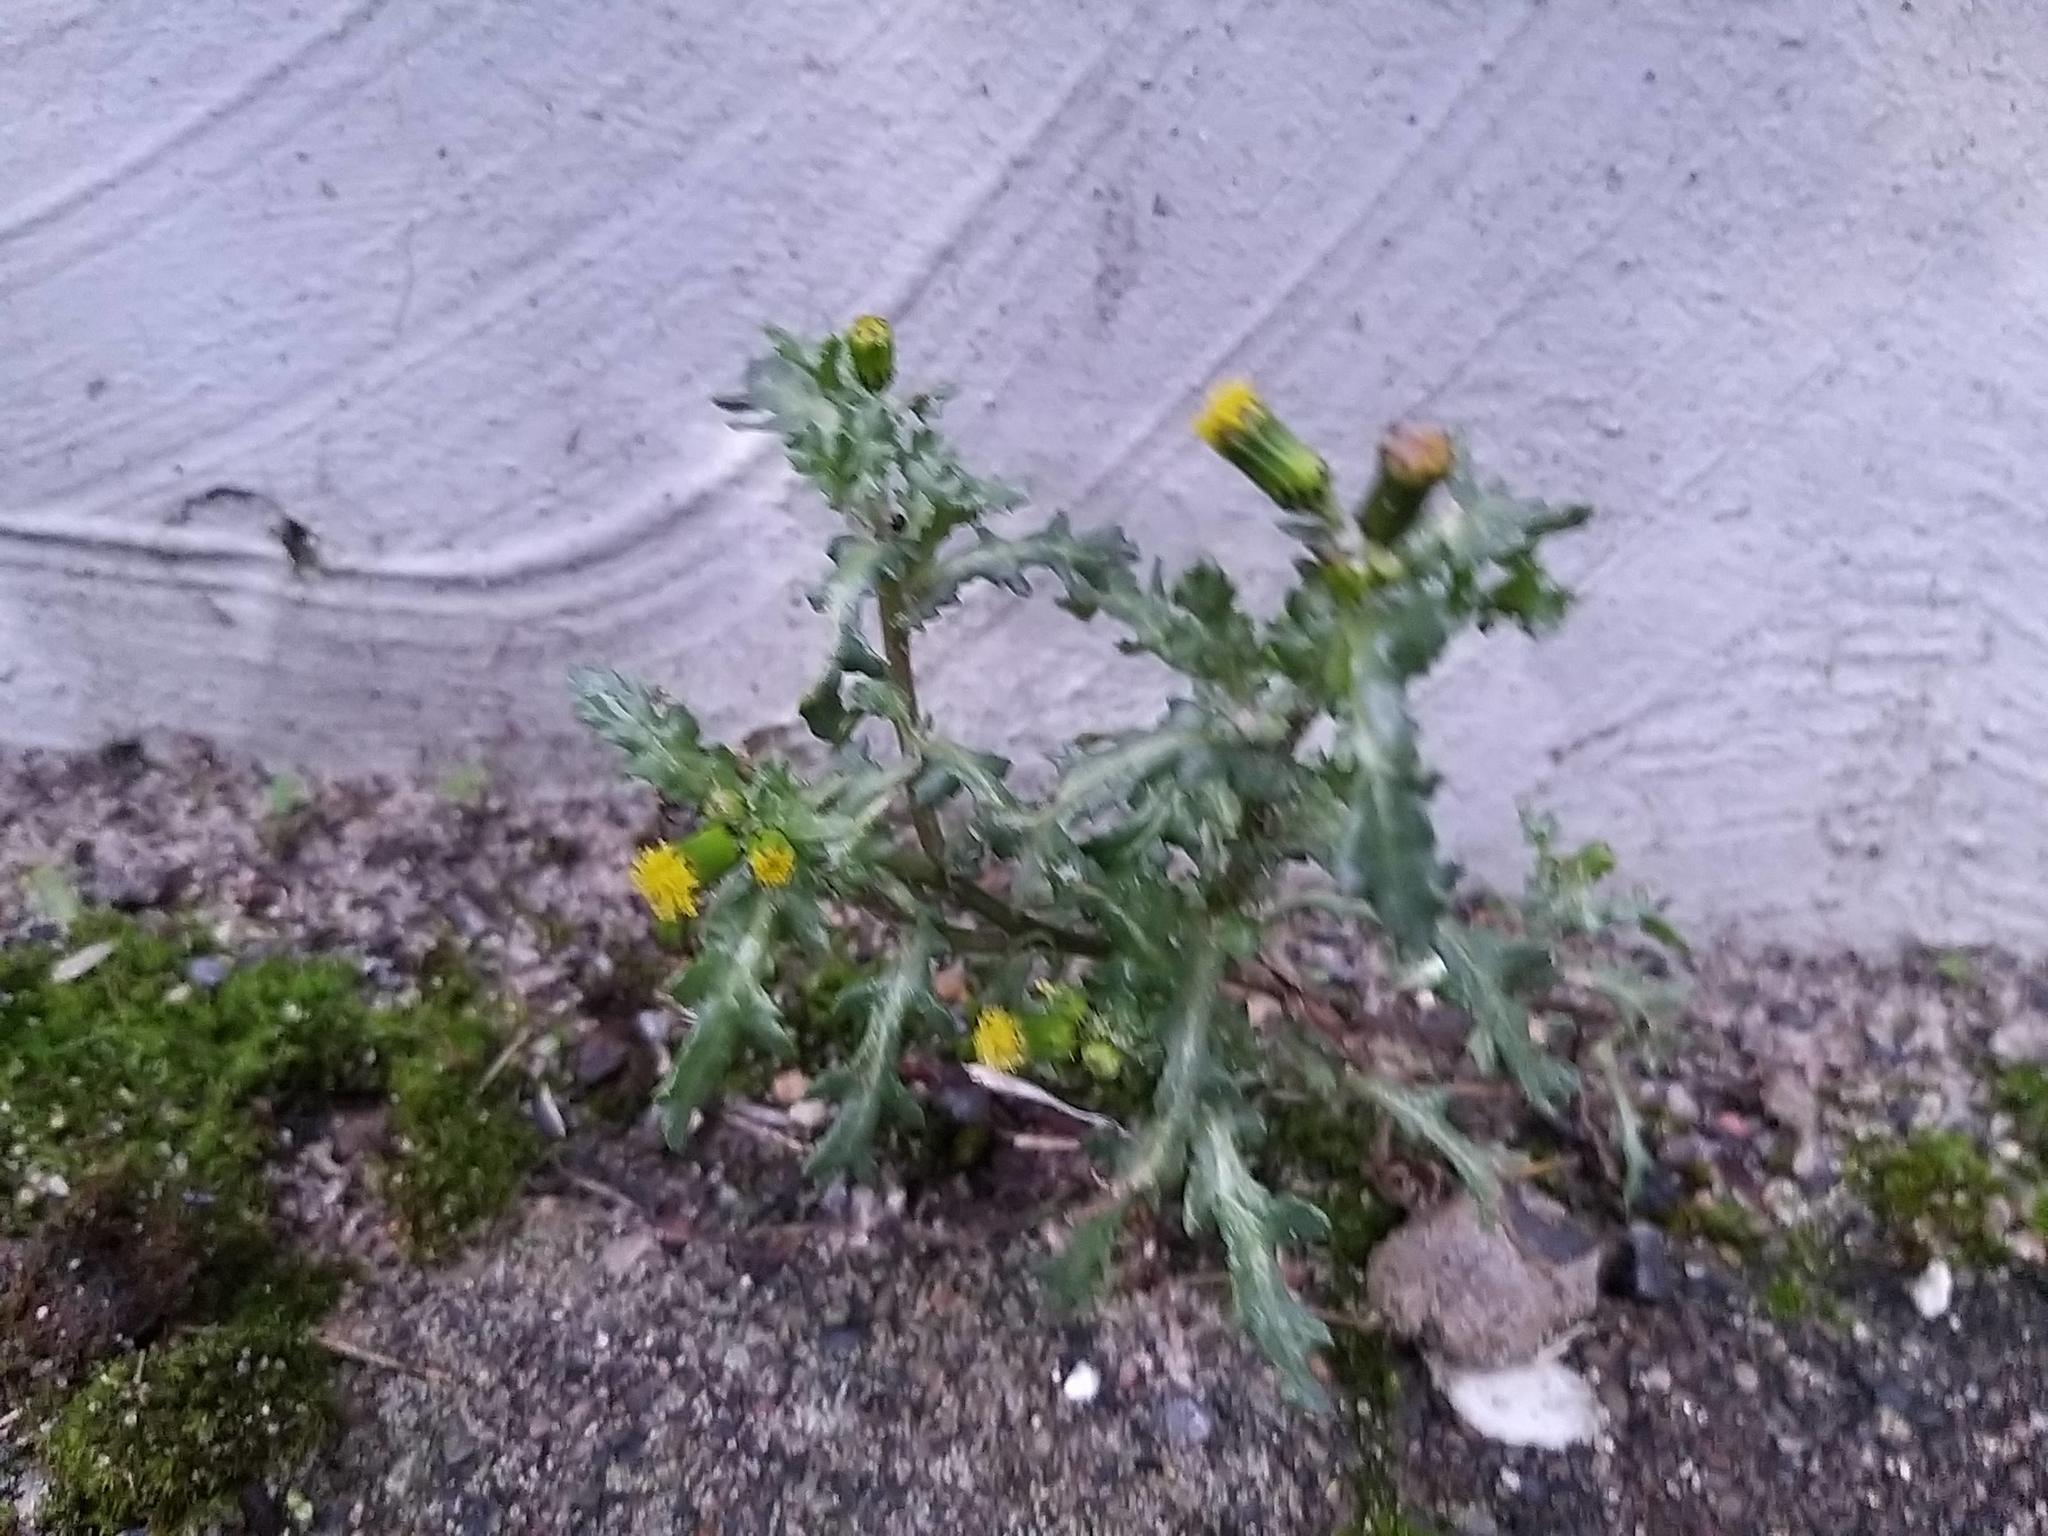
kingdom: Plantae
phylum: Tracheophyta
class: Magnoliopsida
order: Asterales
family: Asteraceae
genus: Senecio
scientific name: Senecio vulgaris
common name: Old-man-in-the-spring
